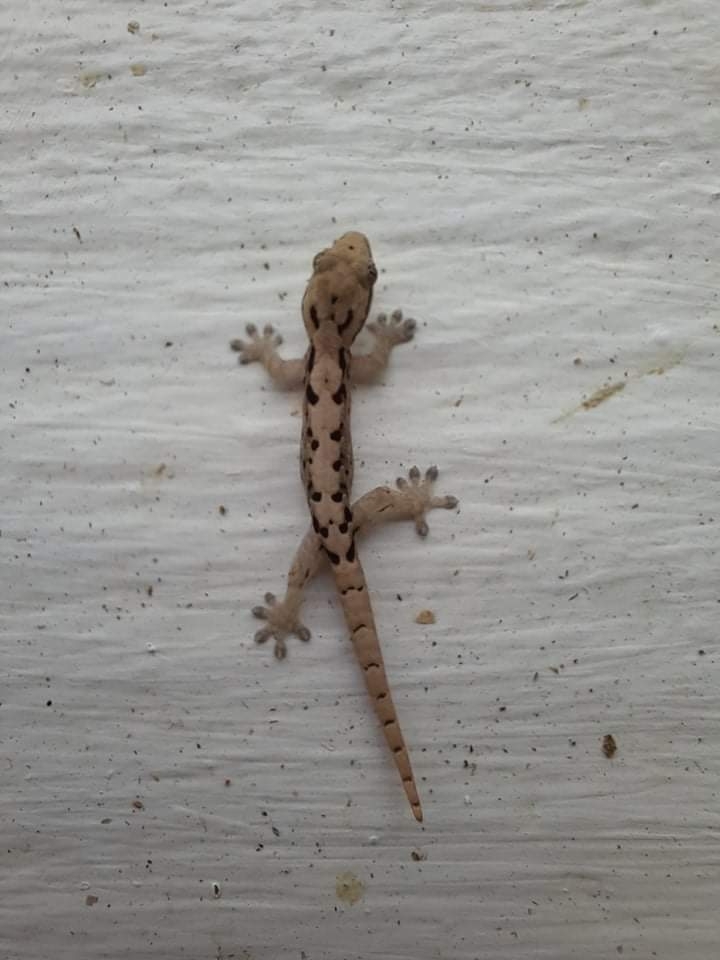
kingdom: Animalia
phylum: Chordata
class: Squamata
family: Gekkonidae
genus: Lepidodactylus
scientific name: Lepidodactylus lugubris
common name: Mourning gecko
